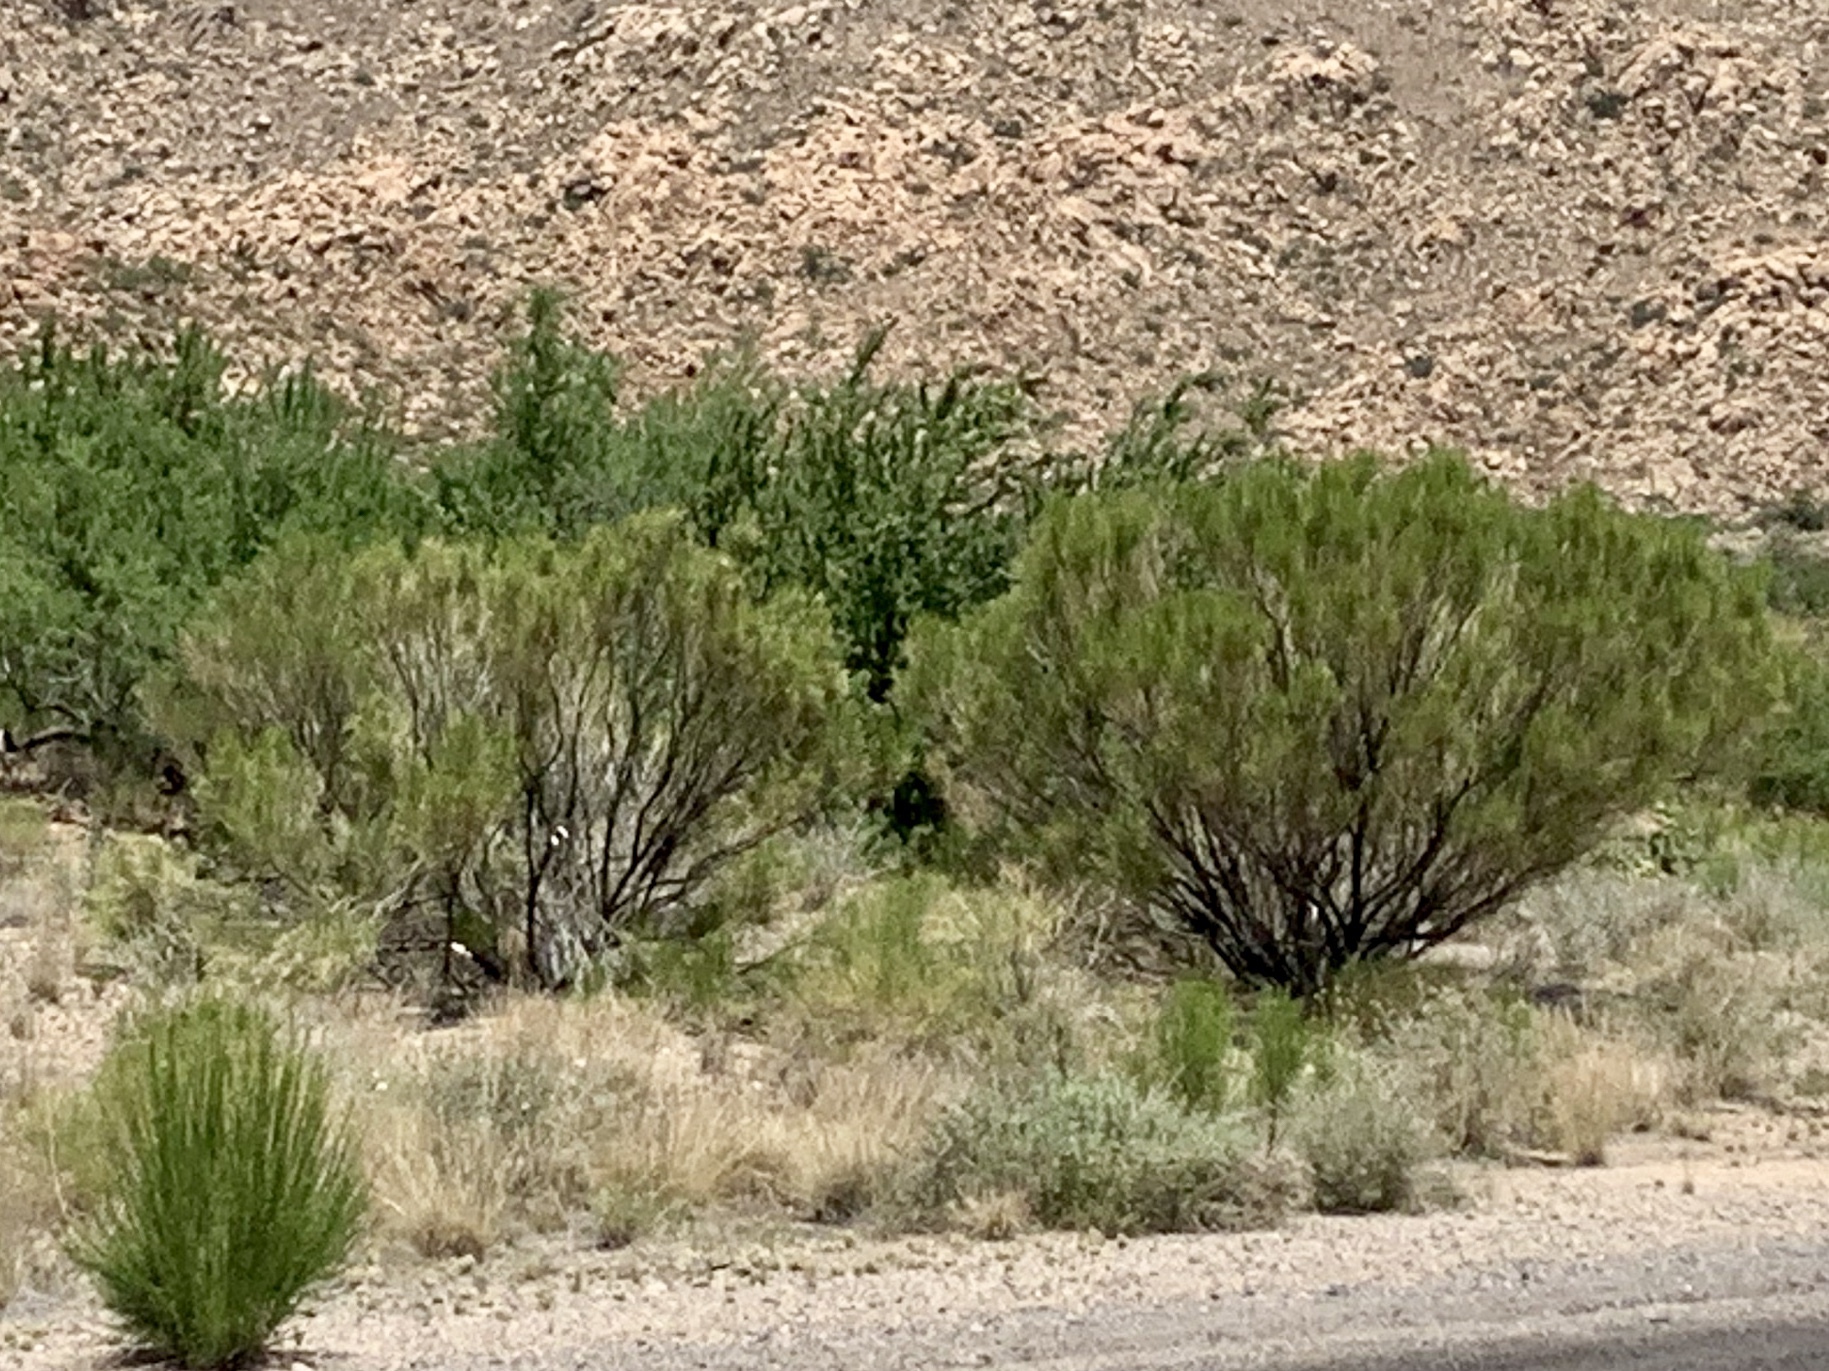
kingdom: Plantae
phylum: Tracheophyta
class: Magnoliopsida
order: Asterales
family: Asteraceae
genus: Baccharis
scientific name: Baccharis sarothroides
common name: Desert-broom
